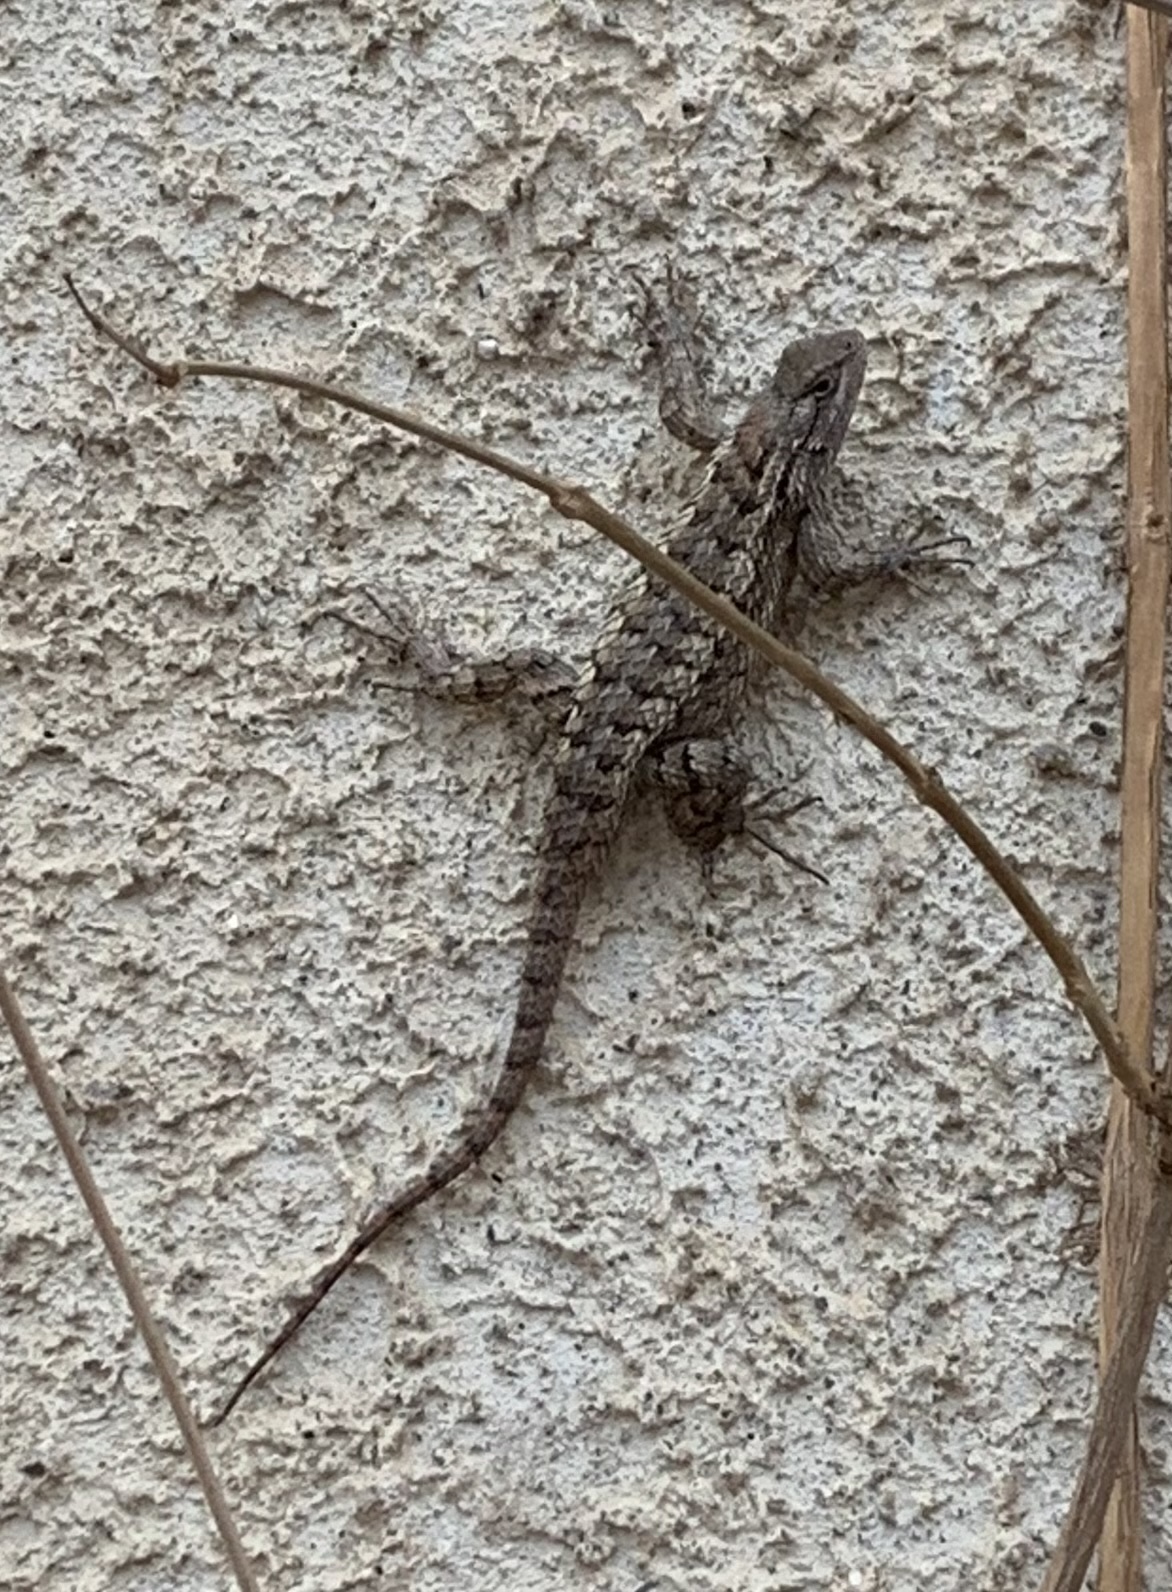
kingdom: Animalia
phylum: Chordata
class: Squamata
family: Phrynosomatidae
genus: Sceloporus
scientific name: Sceloporus olivaceus
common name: Texas spiny lizard
